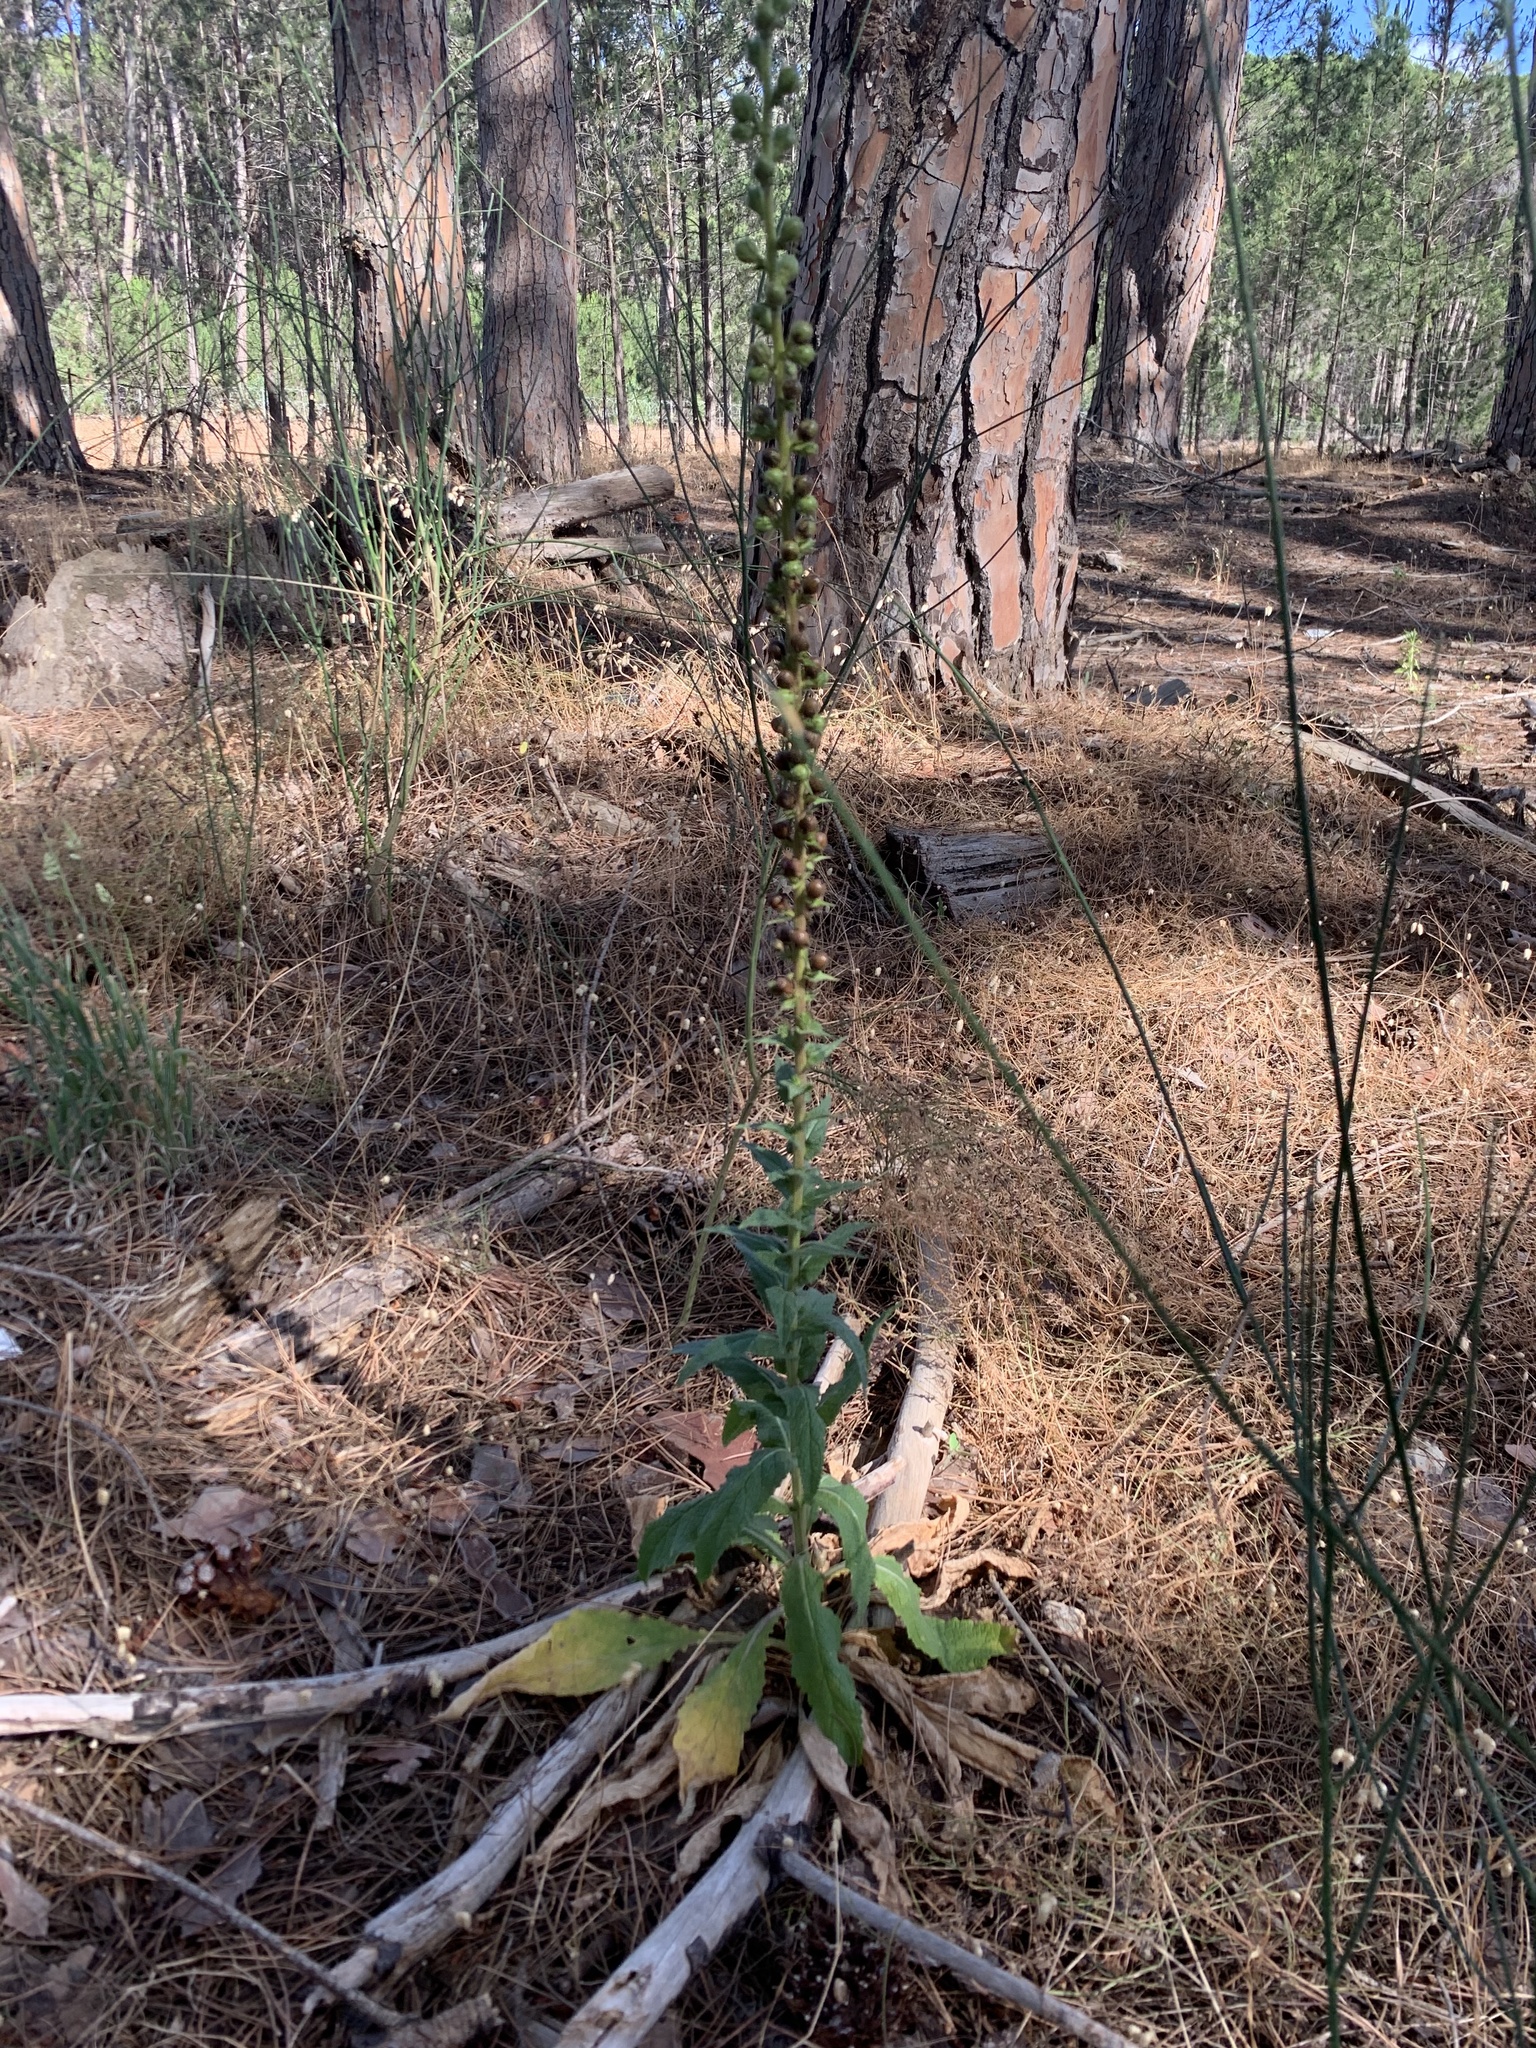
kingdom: Plantae
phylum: Tracheophyta
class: Magnoliopsida
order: Lamiales
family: Scrophulariaceae
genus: Verbascum
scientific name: Verbascum virgatum
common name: Twiggy mullein
